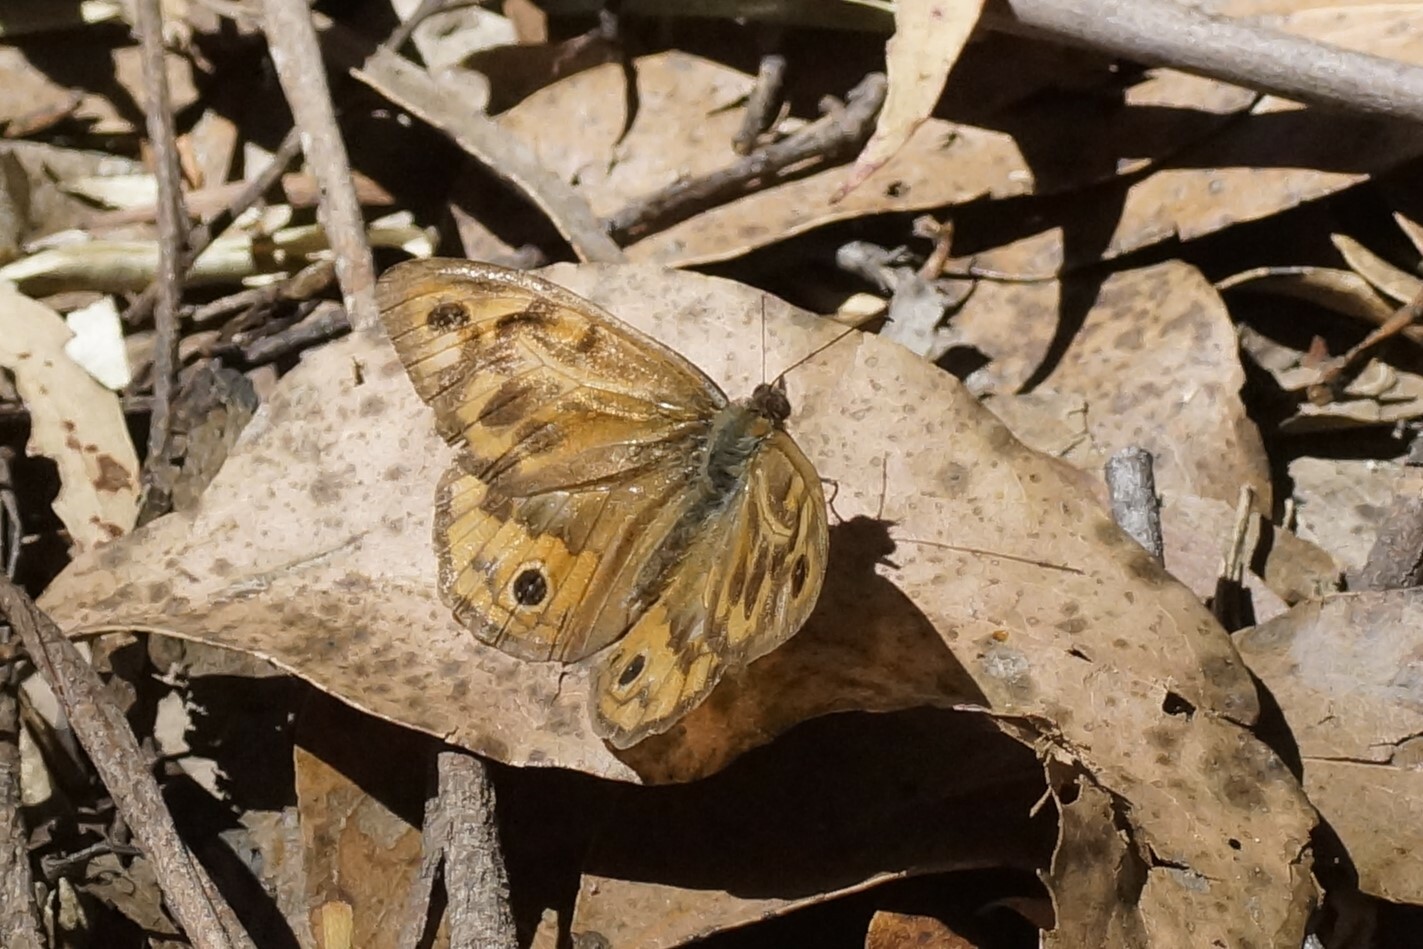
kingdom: Animalia
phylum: Arthropoda
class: Insecta
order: Lepidoptera
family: Nymphalidae
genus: Heteronympha
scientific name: Heteronympha merope
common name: Common brown
